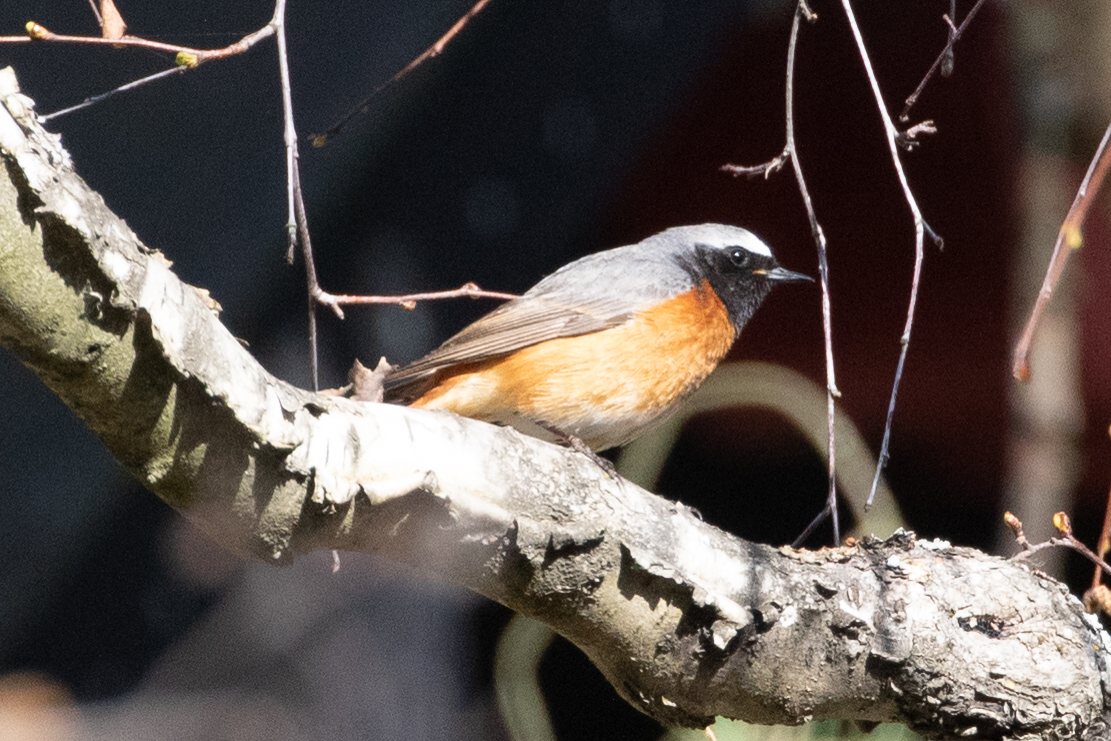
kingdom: Animalia
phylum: Chordata
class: Aves
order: Passeriformes
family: Muscicapidae
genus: Phoenicurus
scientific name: Phoenicurus phoenicurus
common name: Common redstart
